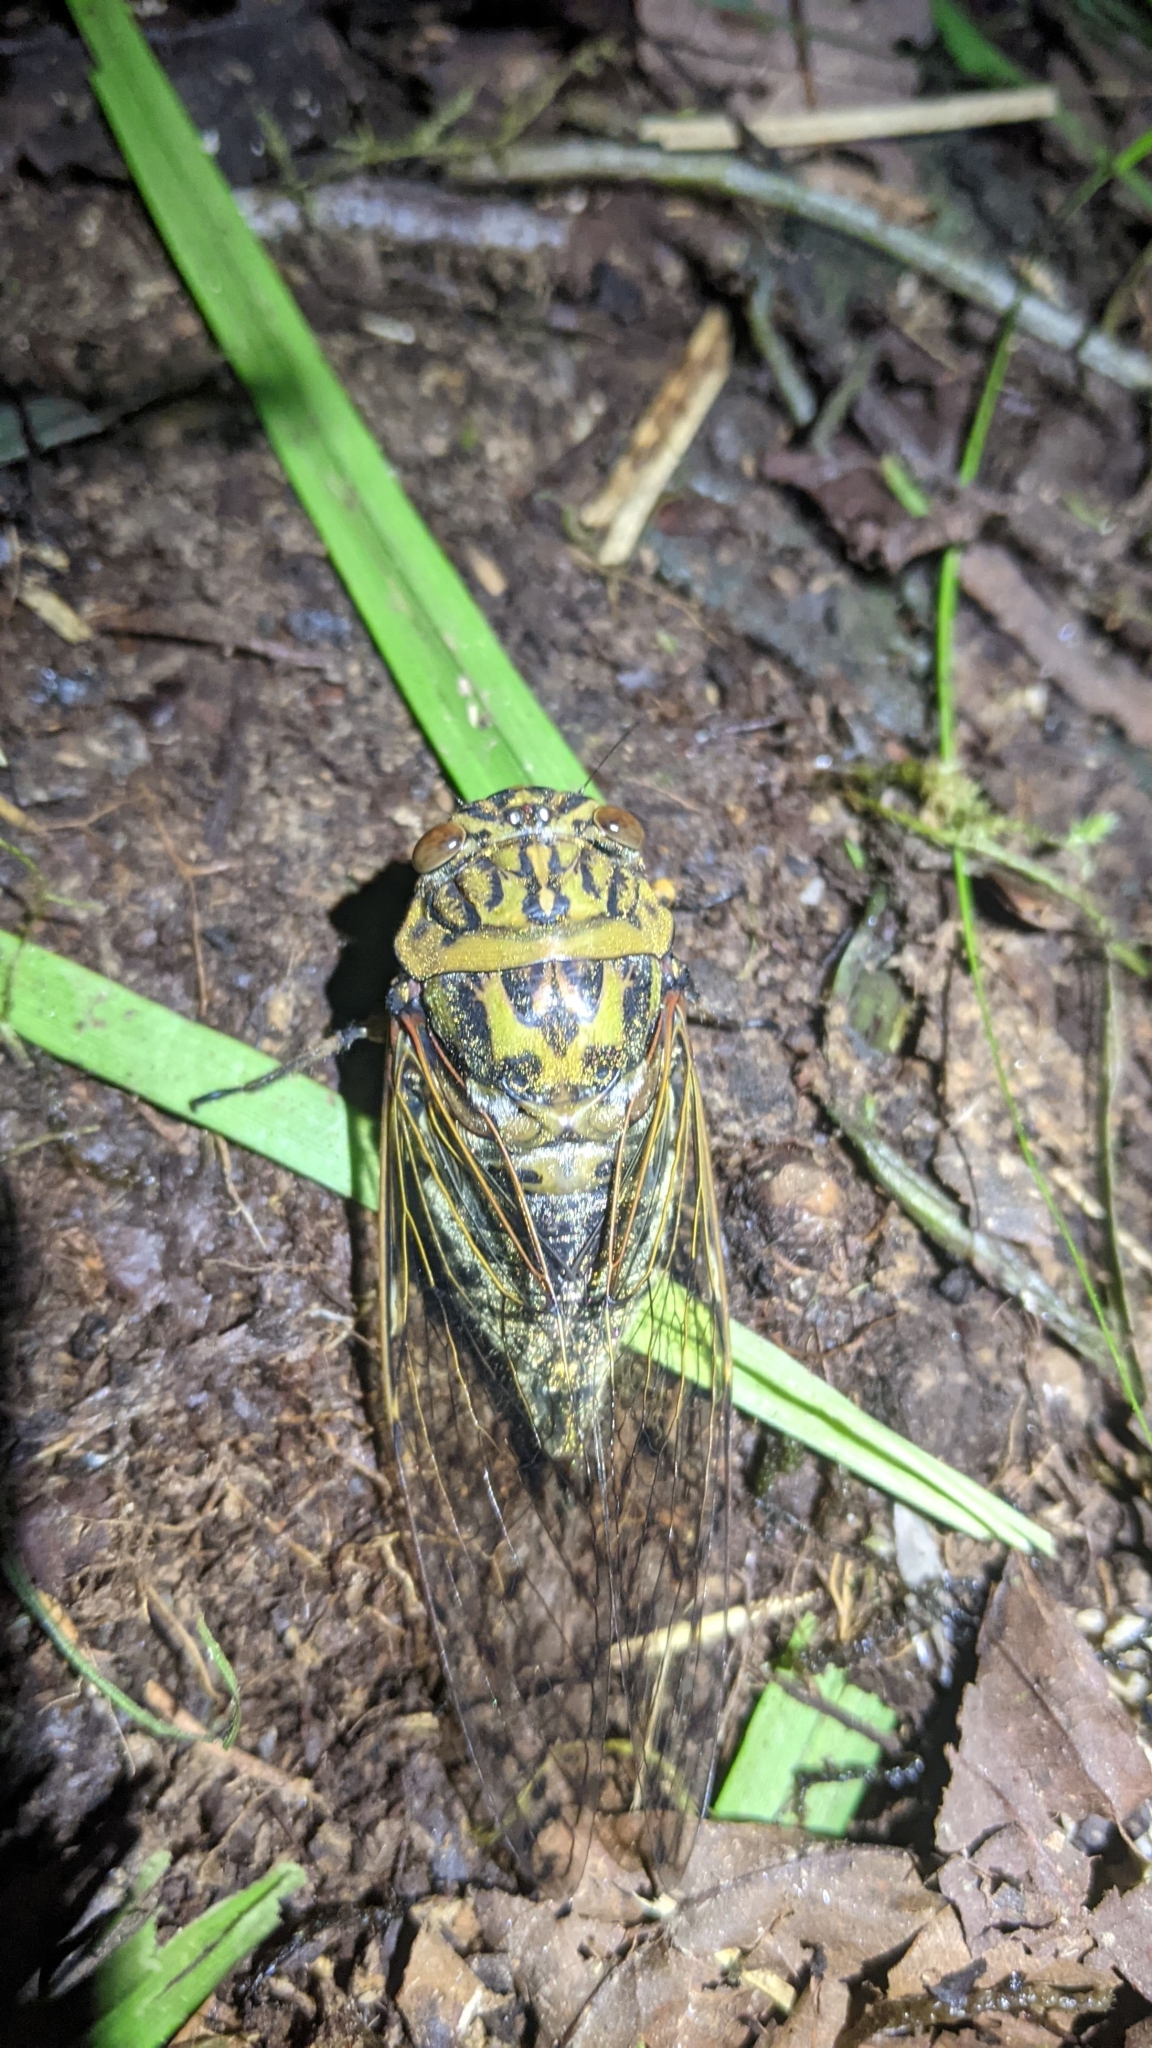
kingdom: Animalia
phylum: Arthropoda
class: Insecta
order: Hemiptera
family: Cicadidae
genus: Macrosemia
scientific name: Macrosemia kareisana
